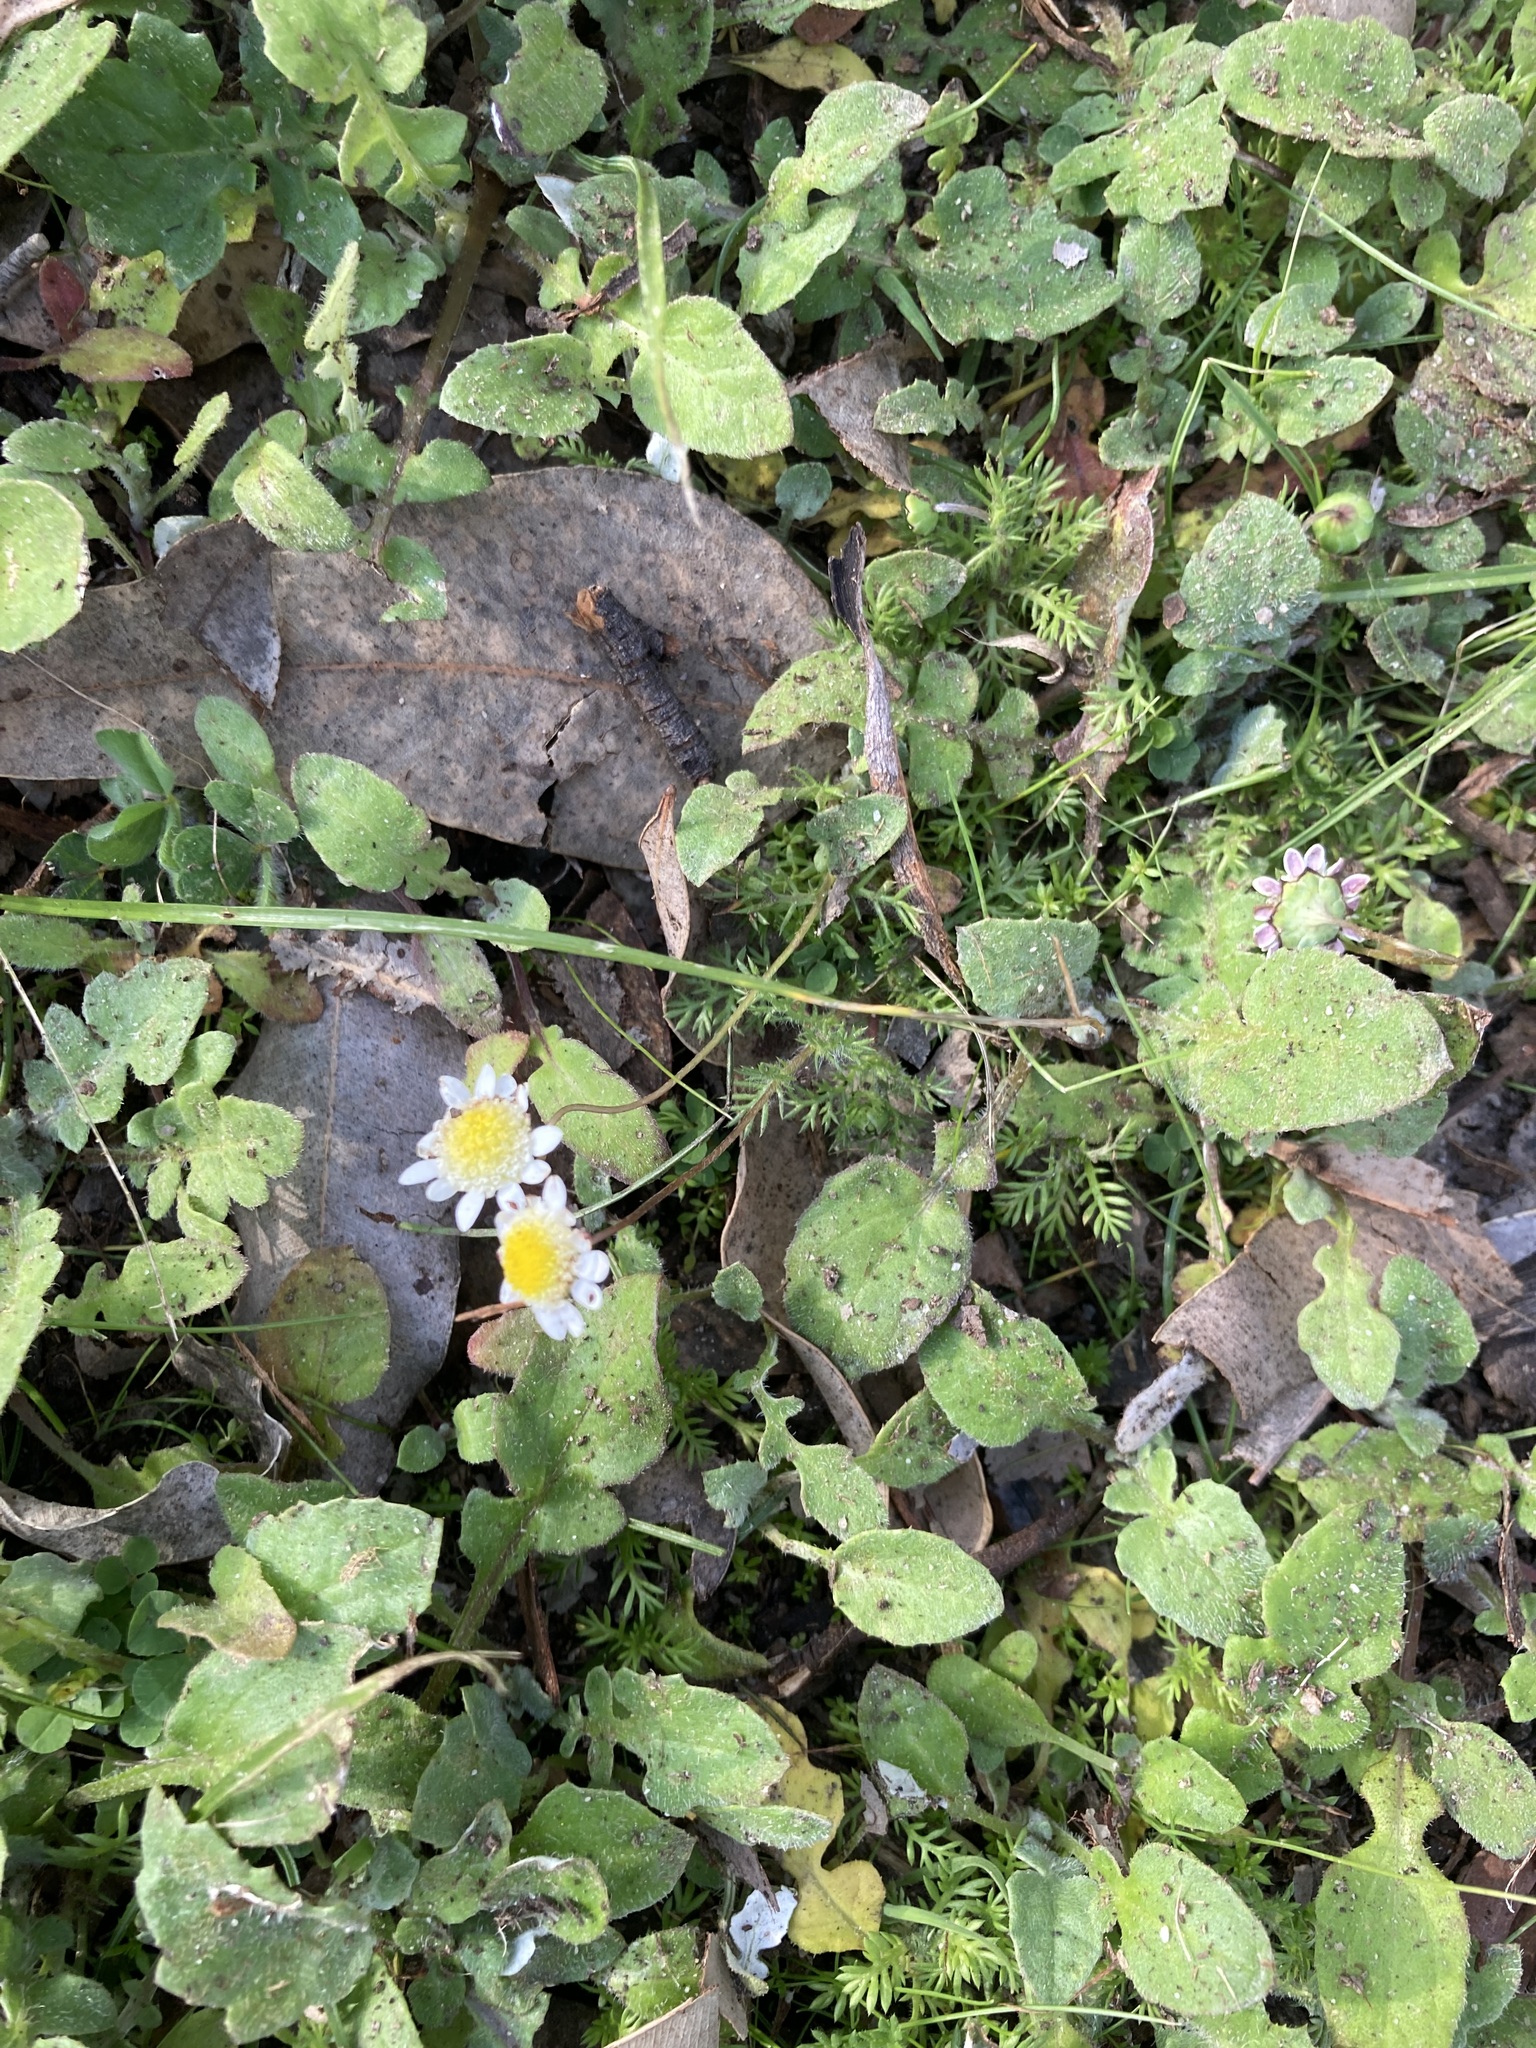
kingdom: Plantae
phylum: Tracheophyta
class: Magnoliopsida
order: Asterales
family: Asteraceae
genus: Cotula
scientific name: Cotula turbinata
